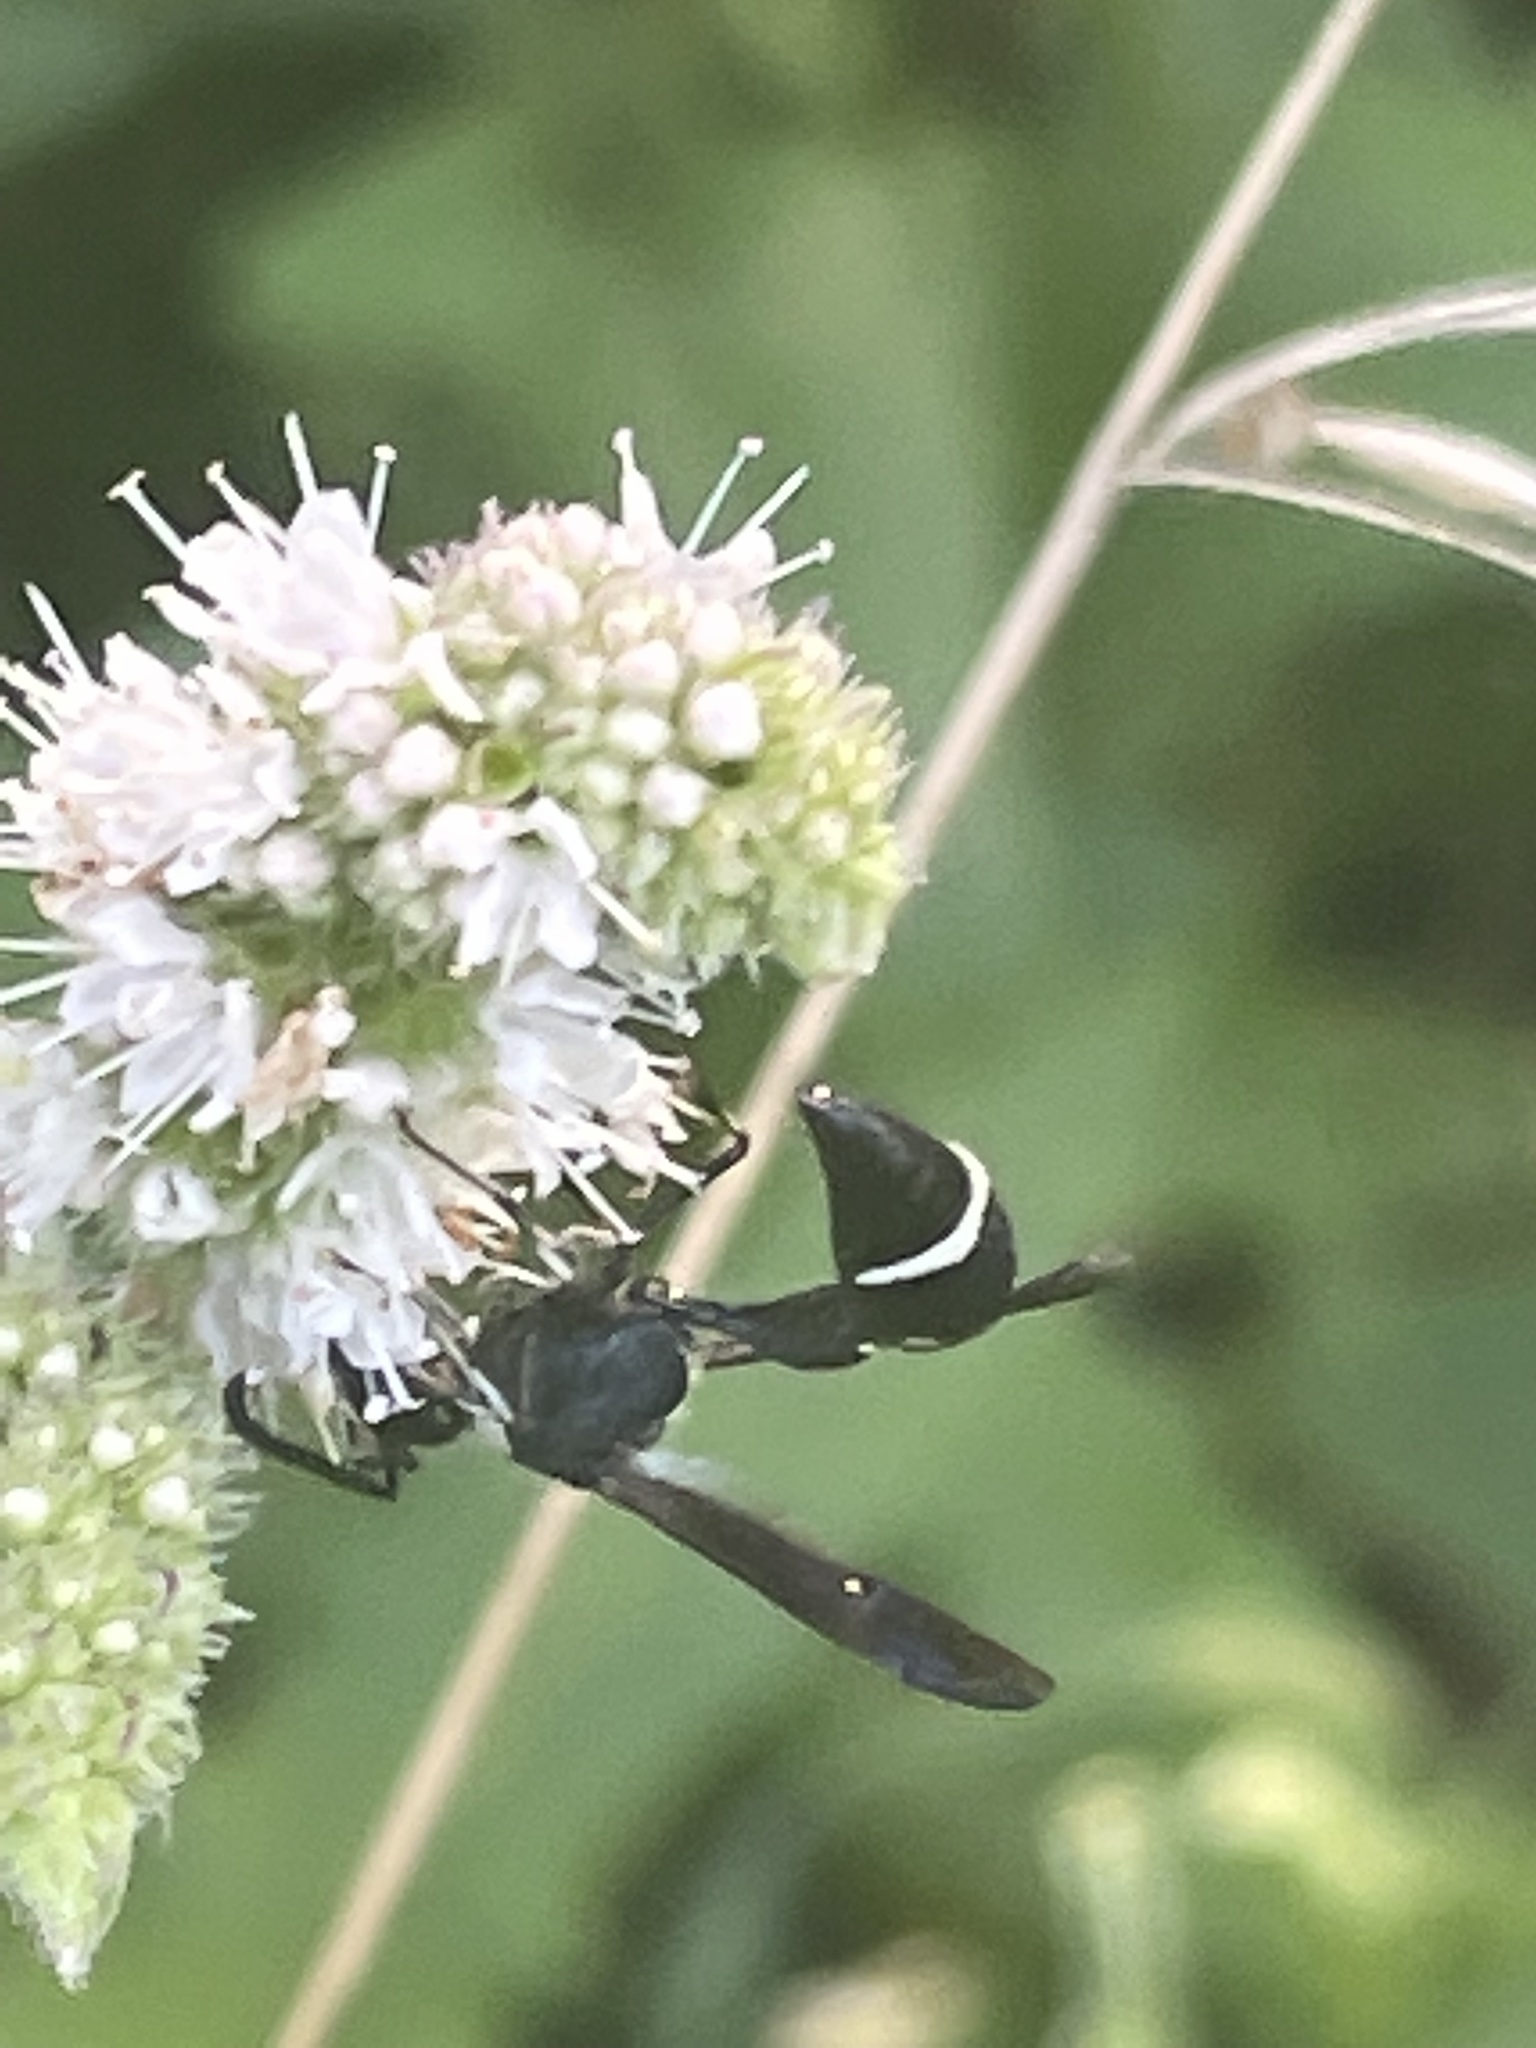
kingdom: Animalia
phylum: Arthropoda
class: Insecta
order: Hymenoptera
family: Vespidae
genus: Eumenes
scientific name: Eumenes fraternus
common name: Fraternal potter wasp
